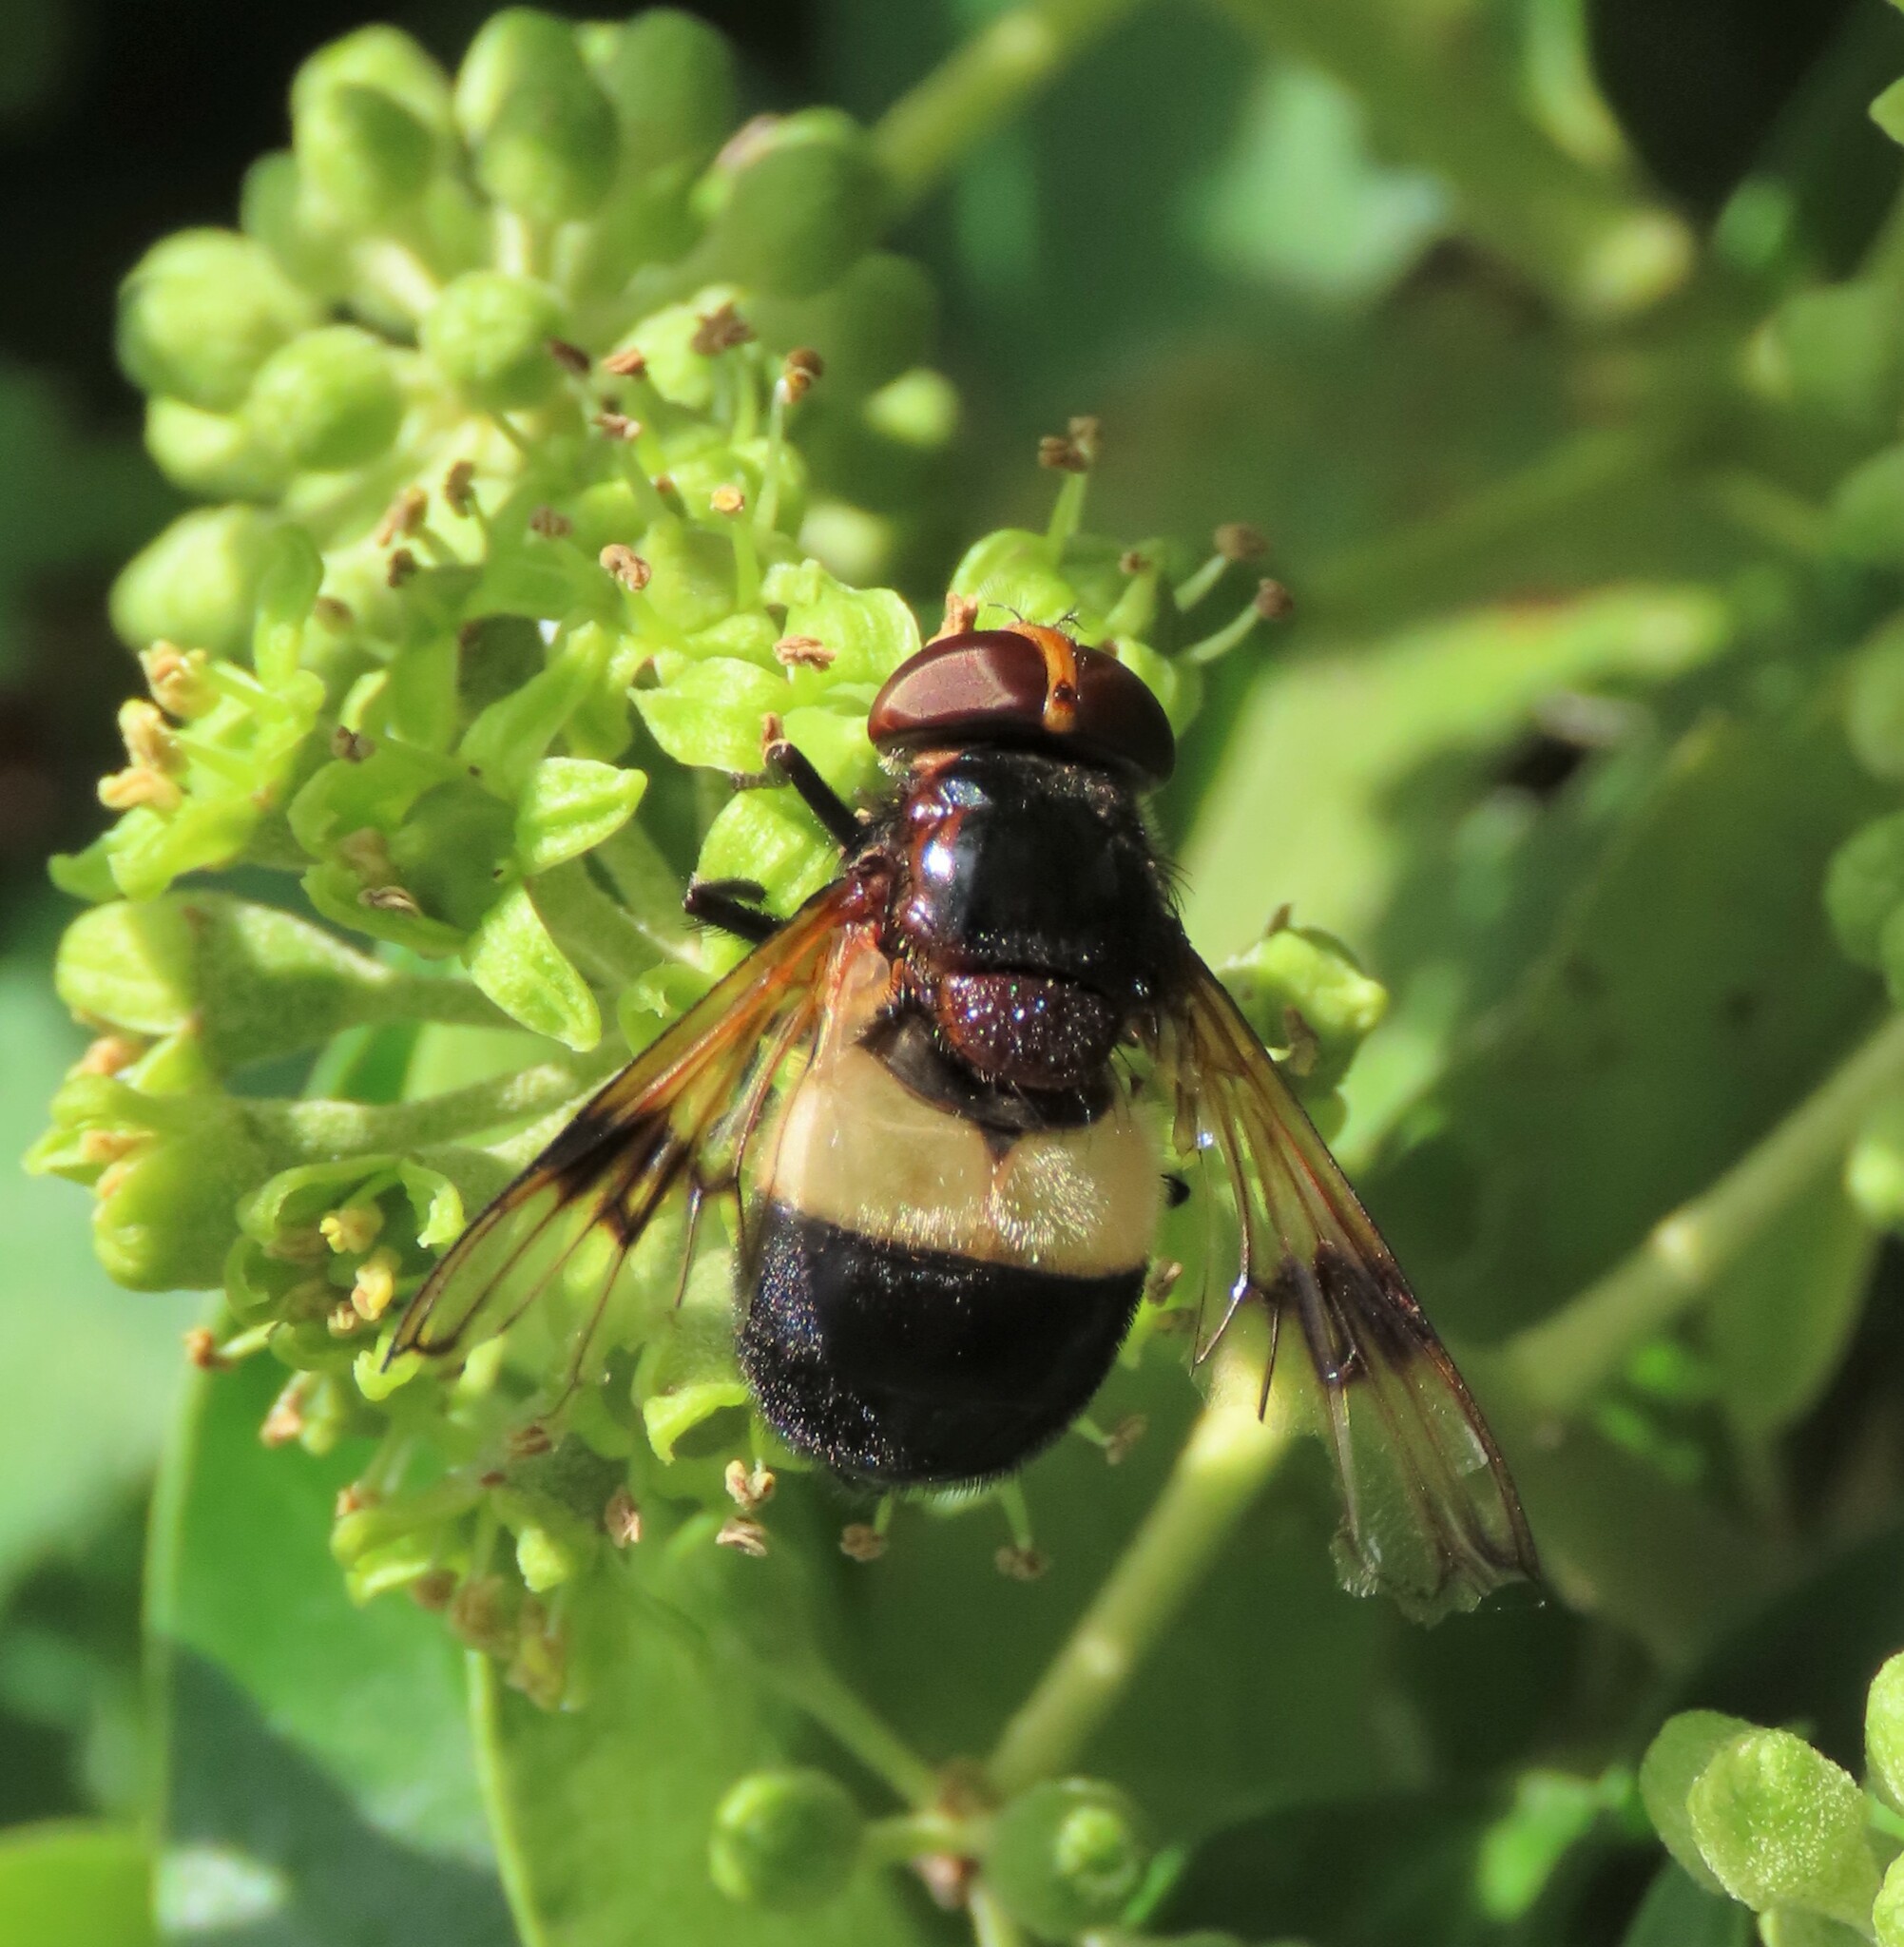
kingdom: Animalia
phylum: Arthropoda
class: Insecta
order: Diptera
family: Syrphidae
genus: Volucella
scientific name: Volucella pellucens
